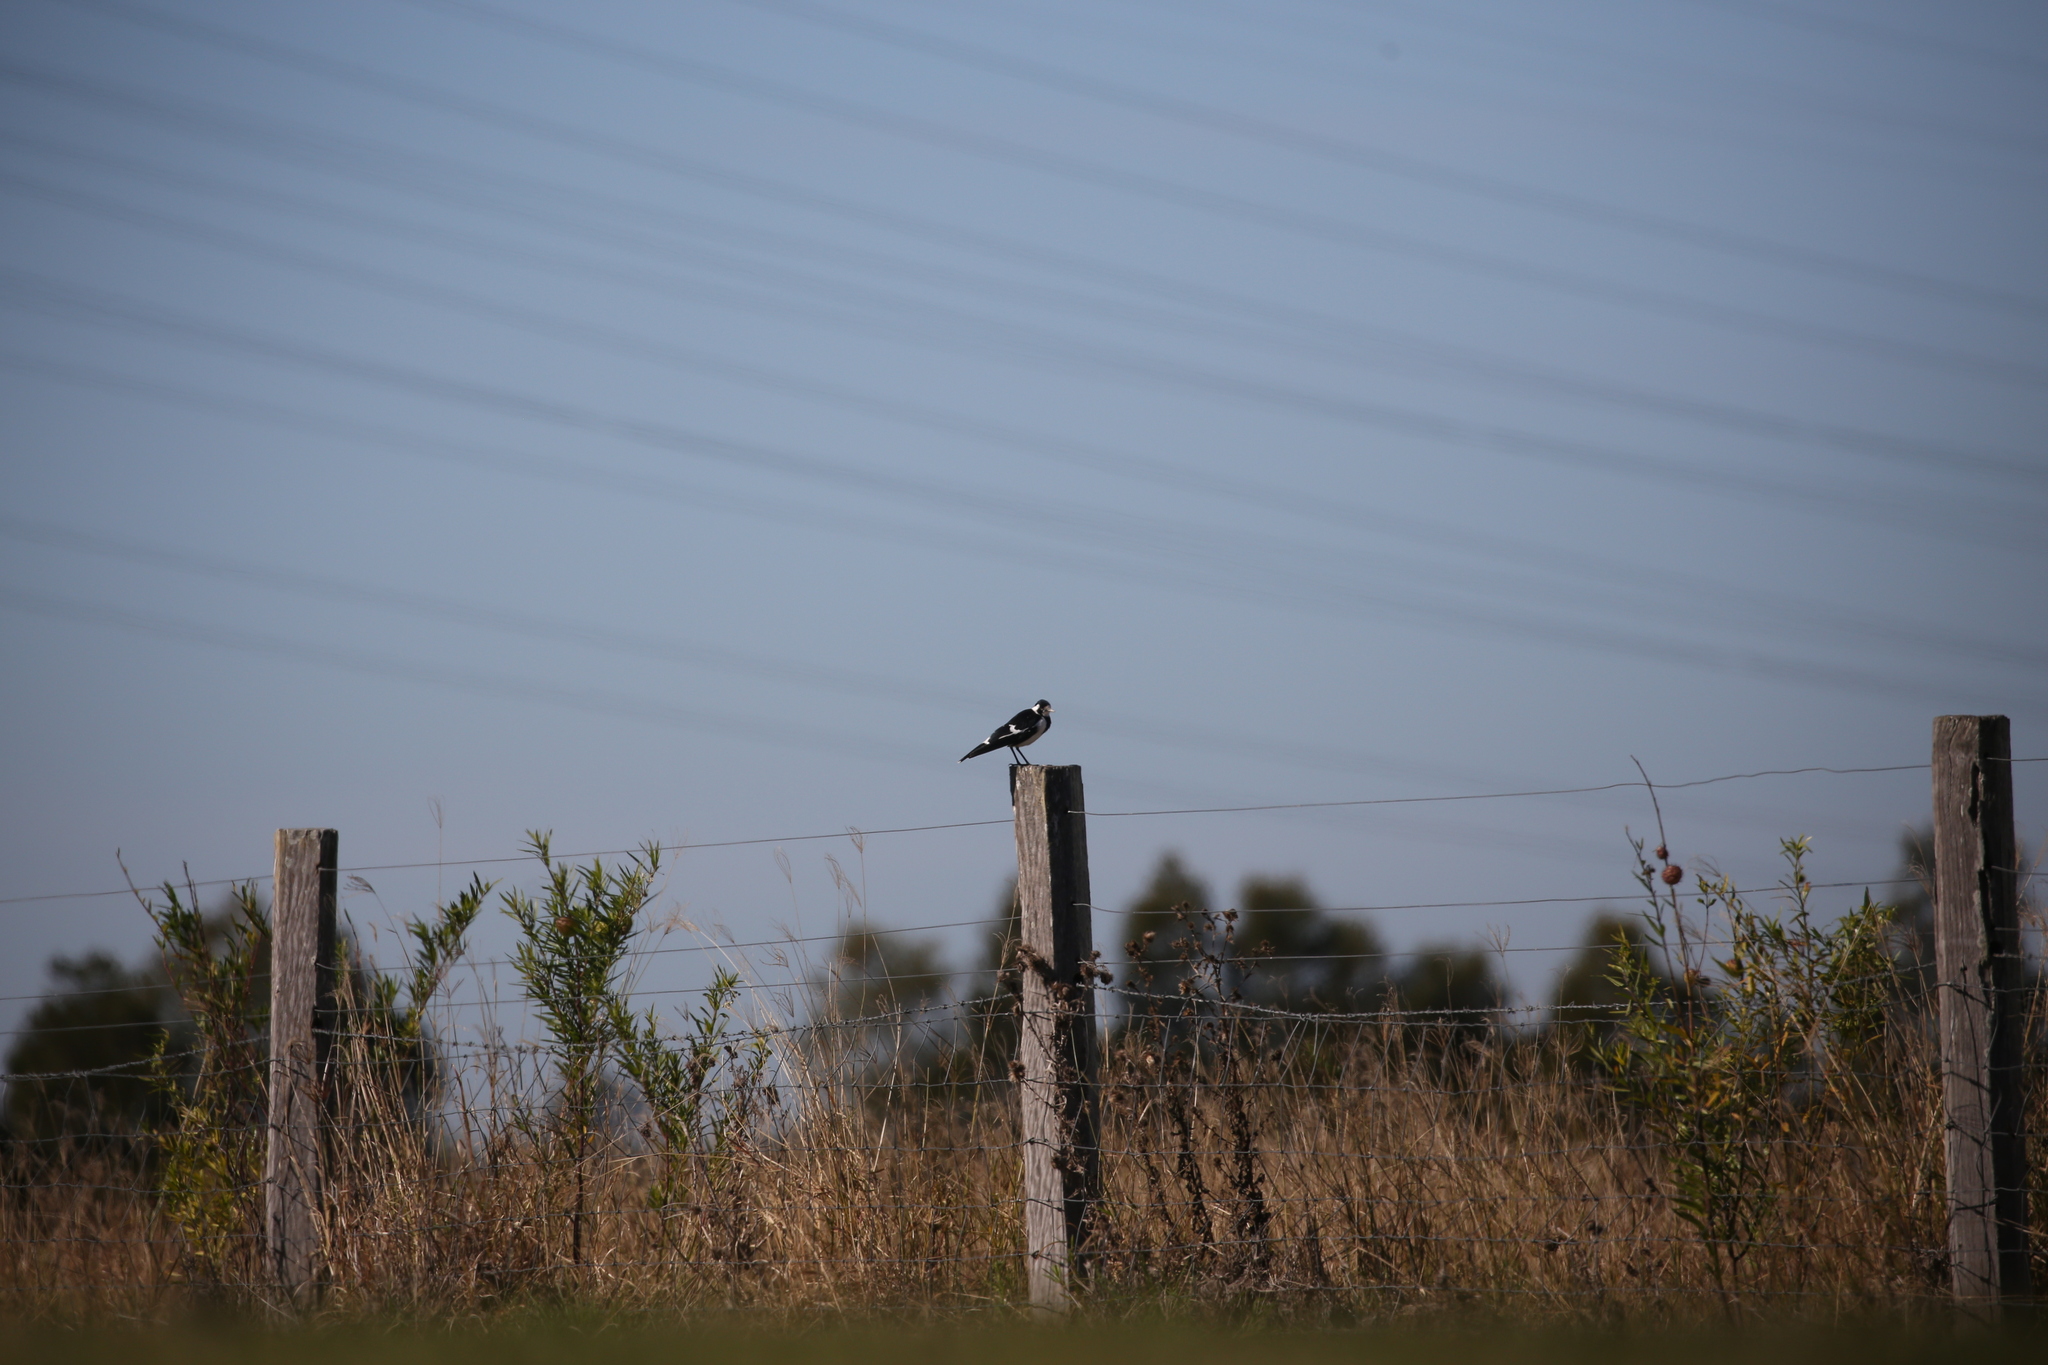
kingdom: Animalia
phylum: Chordata
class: Aves
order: Passeriformes
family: Monarchidae
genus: Grallina
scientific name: Grallina cyanoleuca
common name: Magpie-lark
